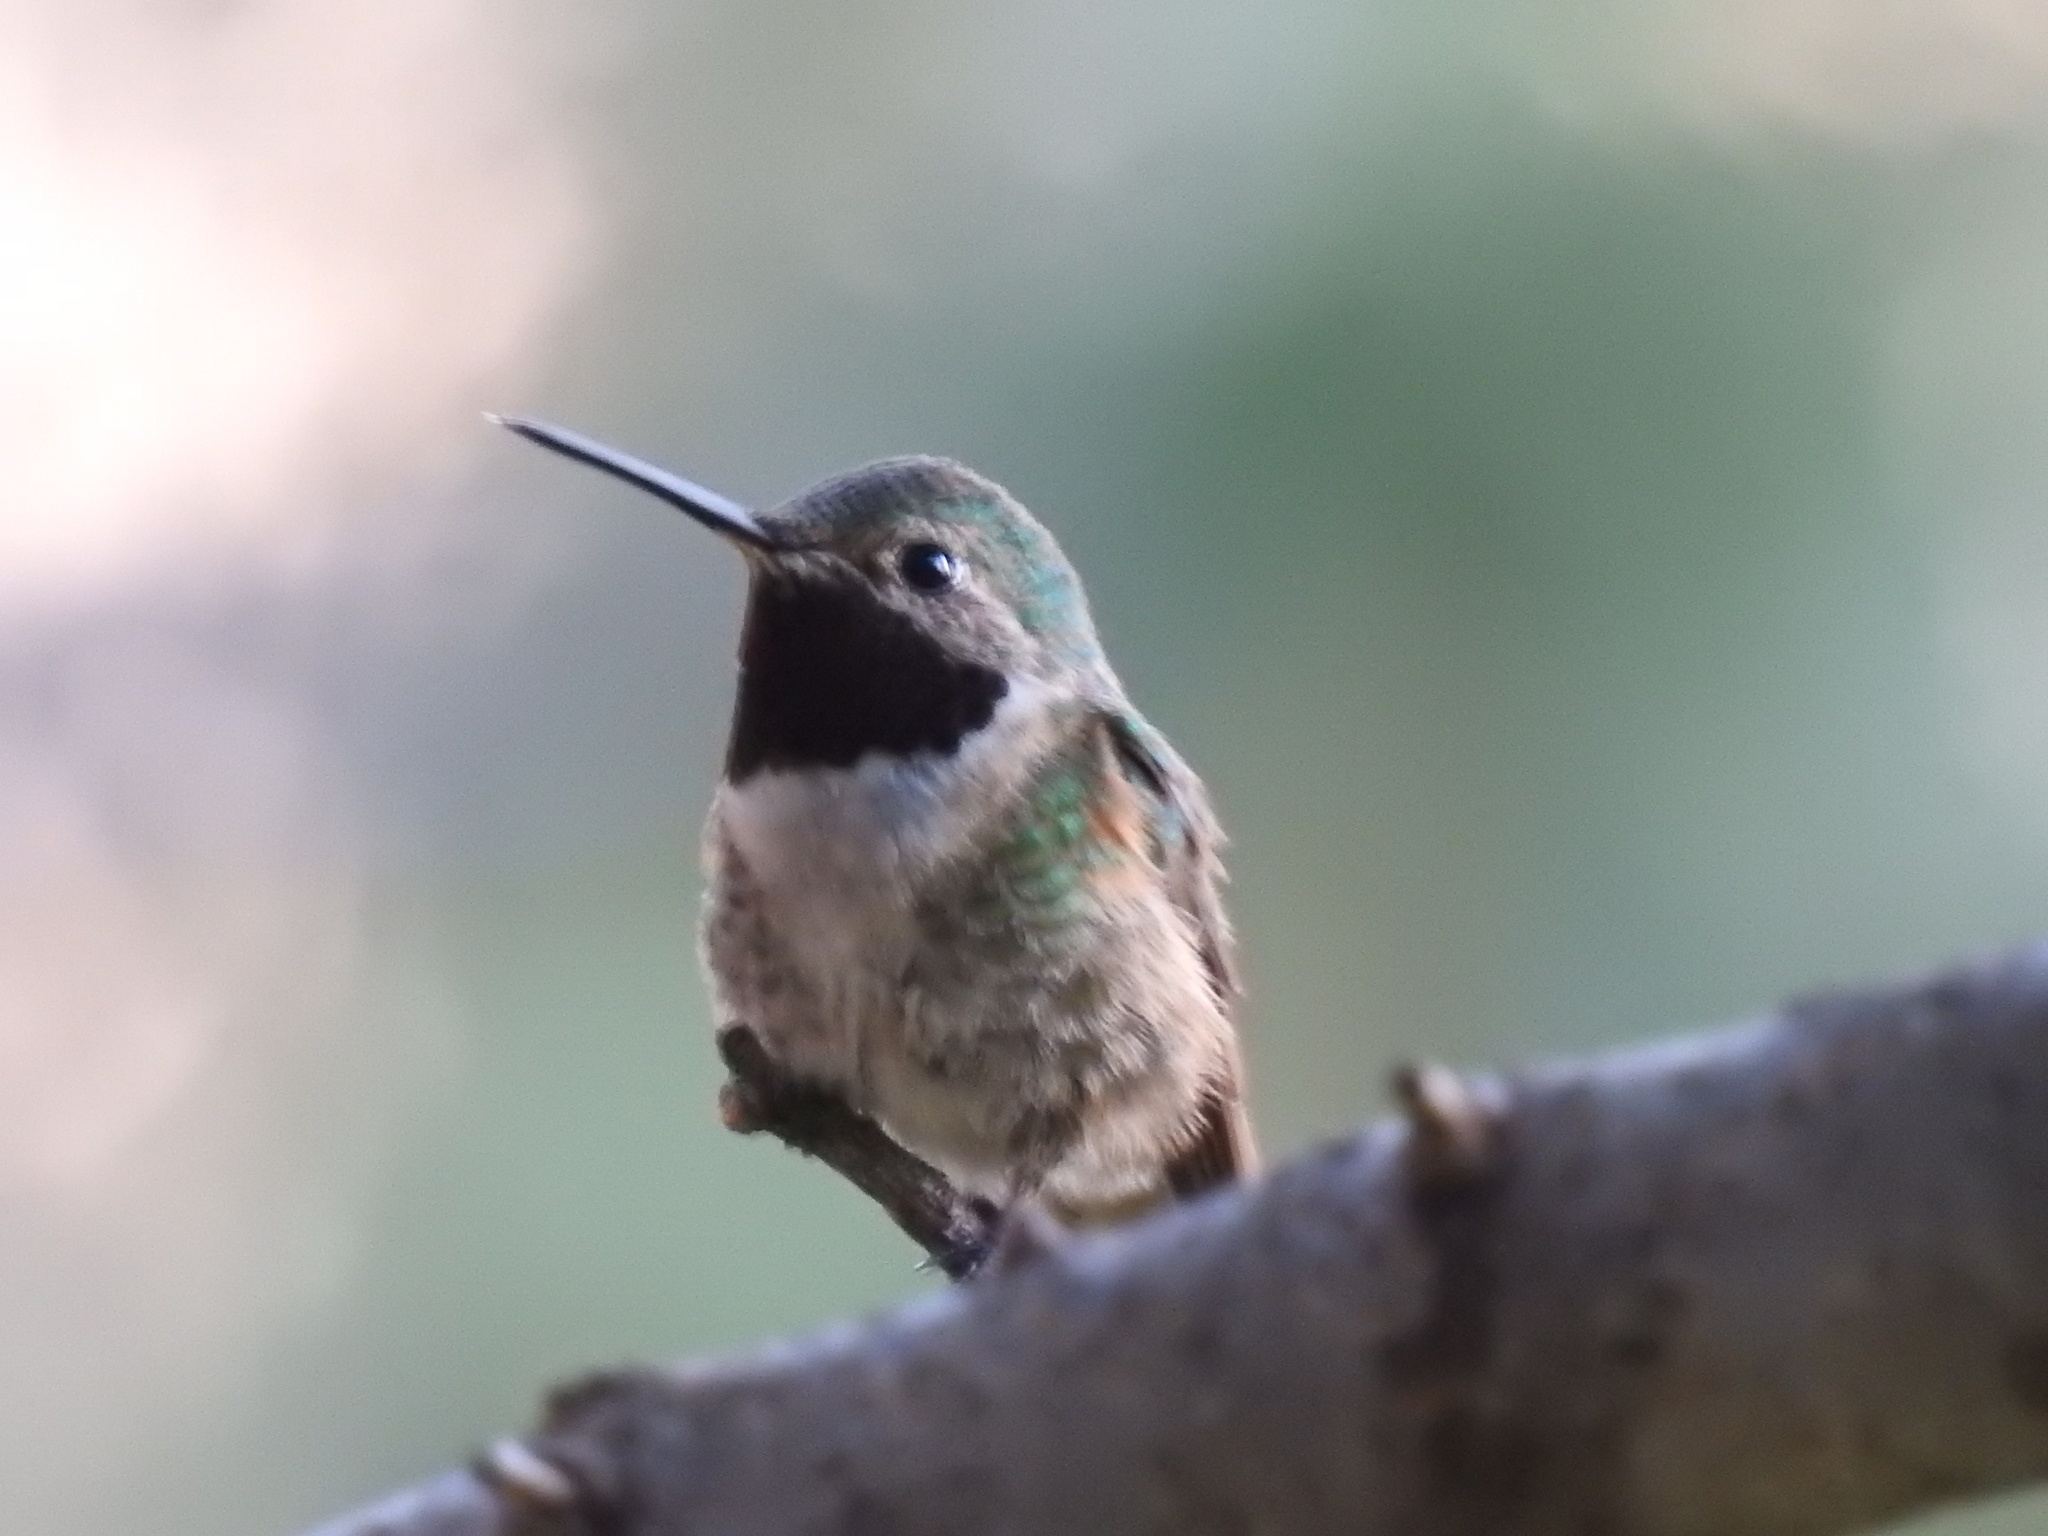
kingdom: Animalia
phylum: Chordata
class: Aves
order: Apodiformes
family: Trochilidae
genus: Selasphorus
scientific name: Selasphorus platycercus
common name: Broad-tailed hummingbird
